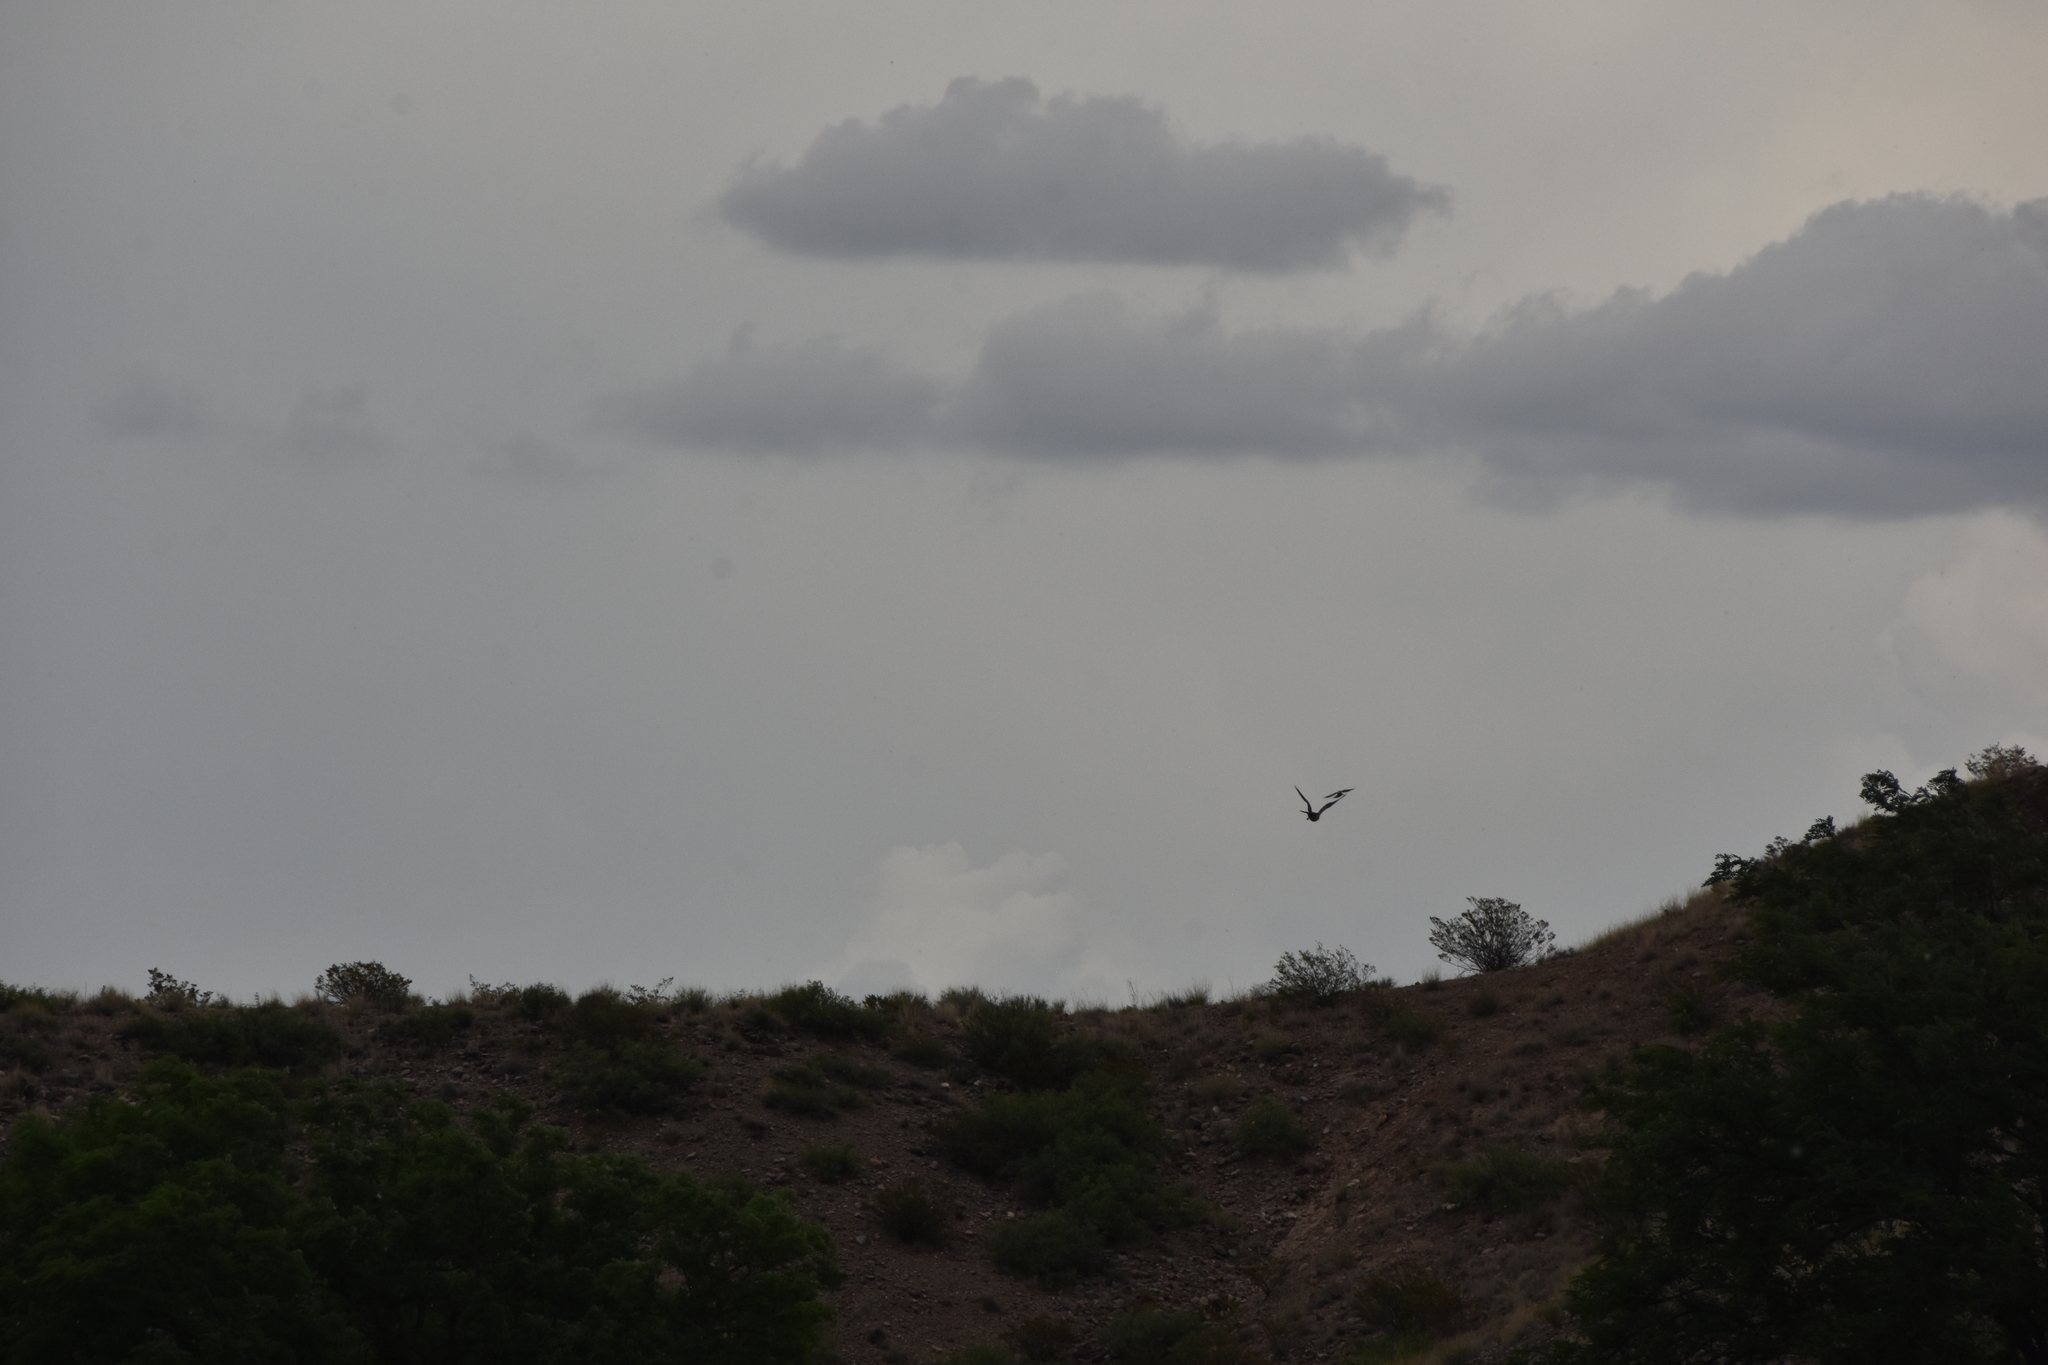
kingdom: Animalia
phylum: Chordata
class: Aves
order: Accipitriformes
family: Accipitridae
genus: Buteo
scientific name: Buteo swainsoni
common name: Swainson's hawk
